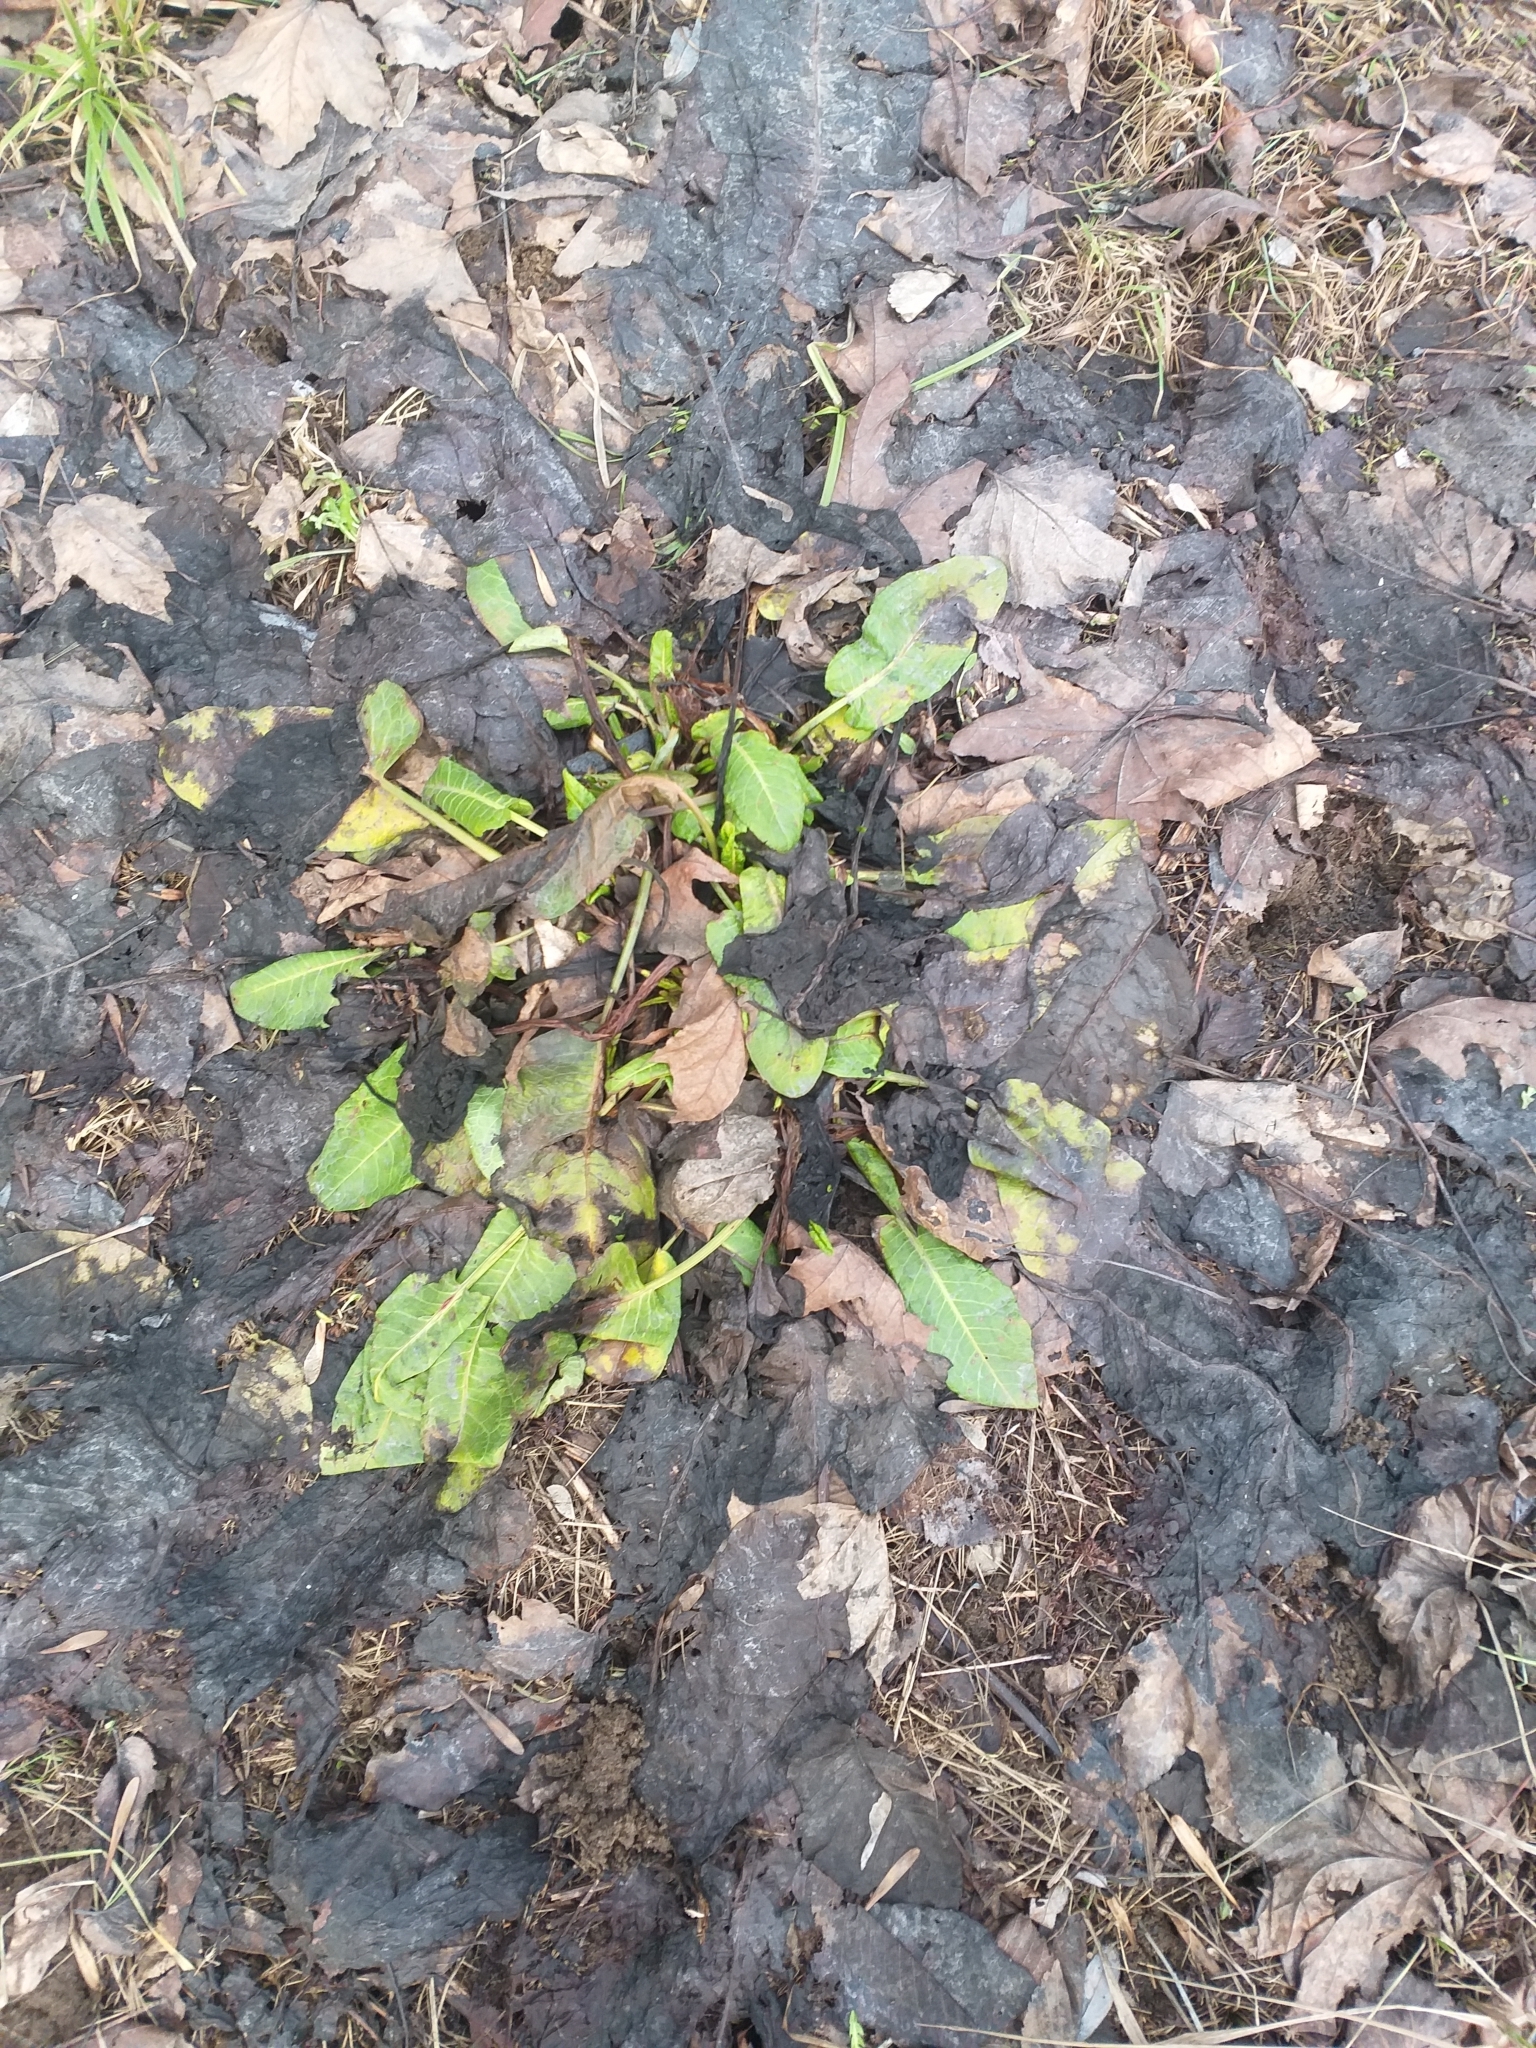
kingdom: Plantae
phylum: Tracheophyta
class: Magnoliopsida
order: Caryophyllales
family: Polygonaceae
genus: Rumex
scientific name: Rumex obtusifolius
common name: Bitter dock
